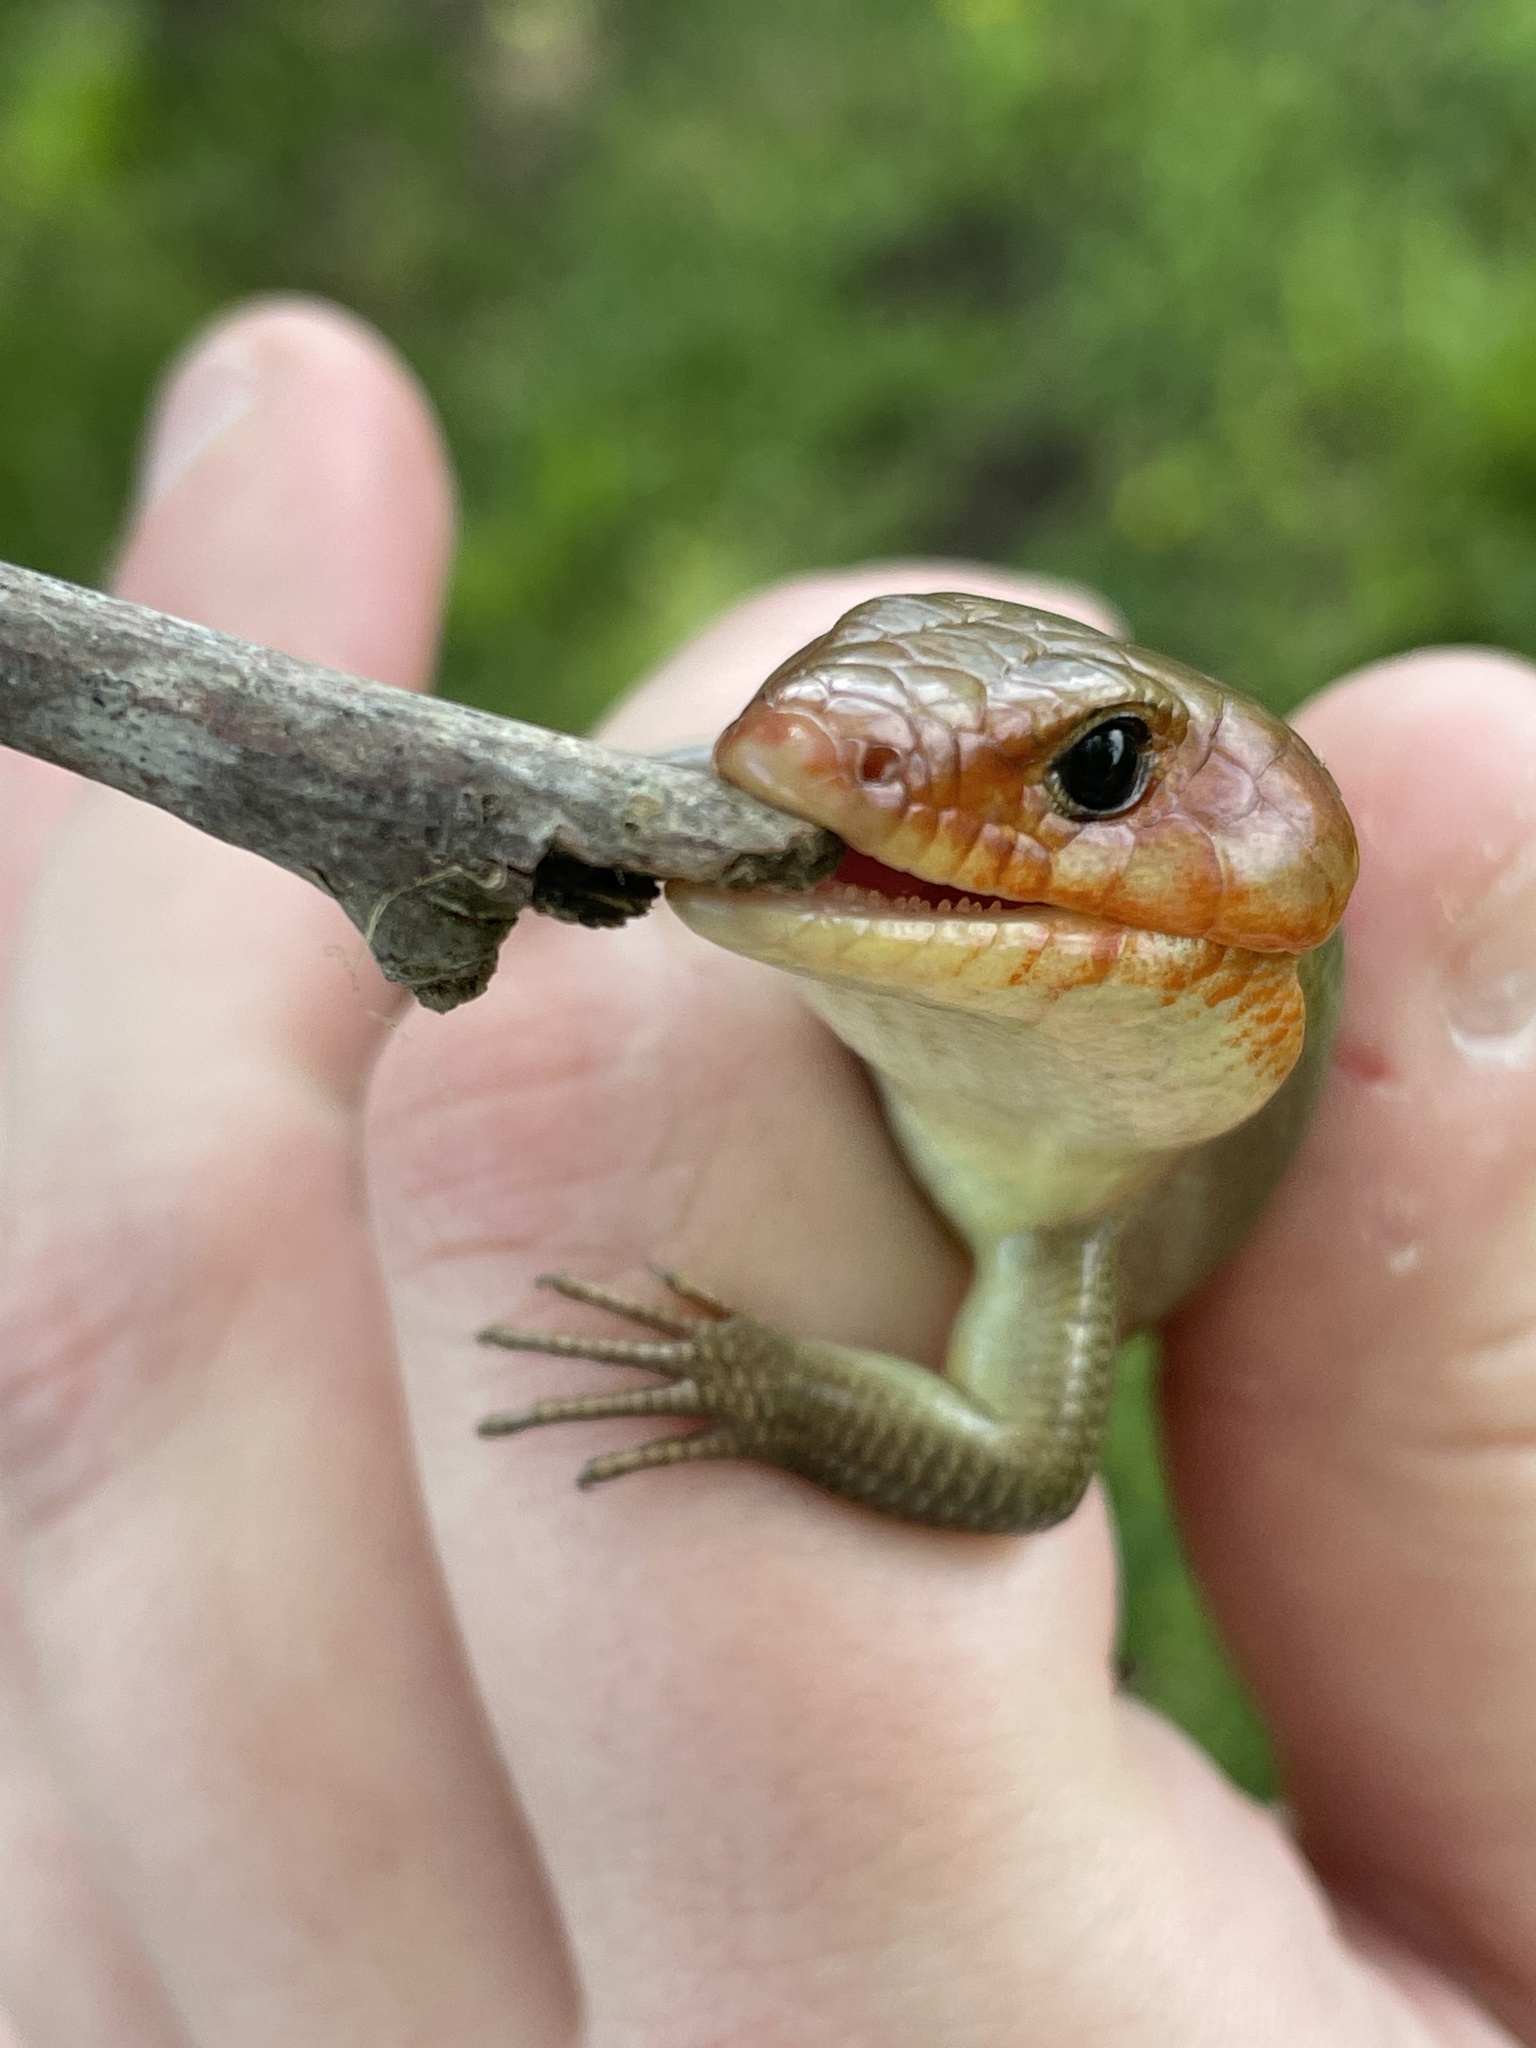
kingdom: Animalia
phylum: Chordata
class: Squamata
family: Scincidae
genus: Plestiodon
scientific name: Plestiodon laticeps
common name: Broadhead skink
